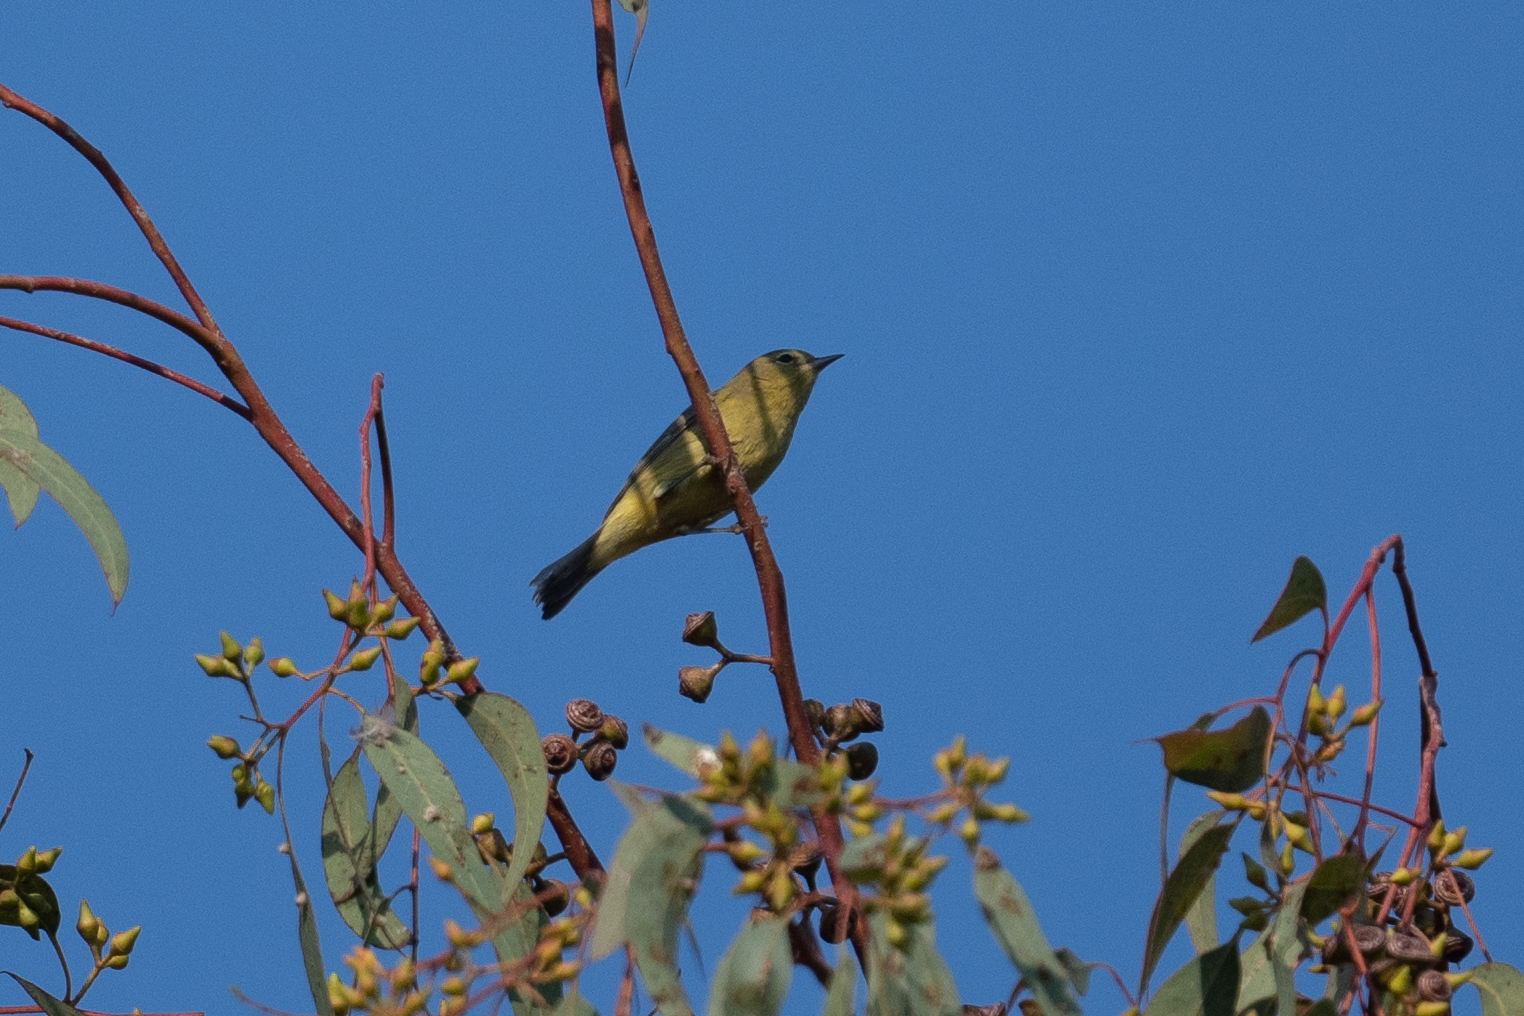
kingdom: Animalia
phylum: Chordata
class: Aves
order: Passeriformes
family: Parulidae
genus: Leiothlypis
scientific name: Leiothlypis celata
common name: Orange-crowned warbler
